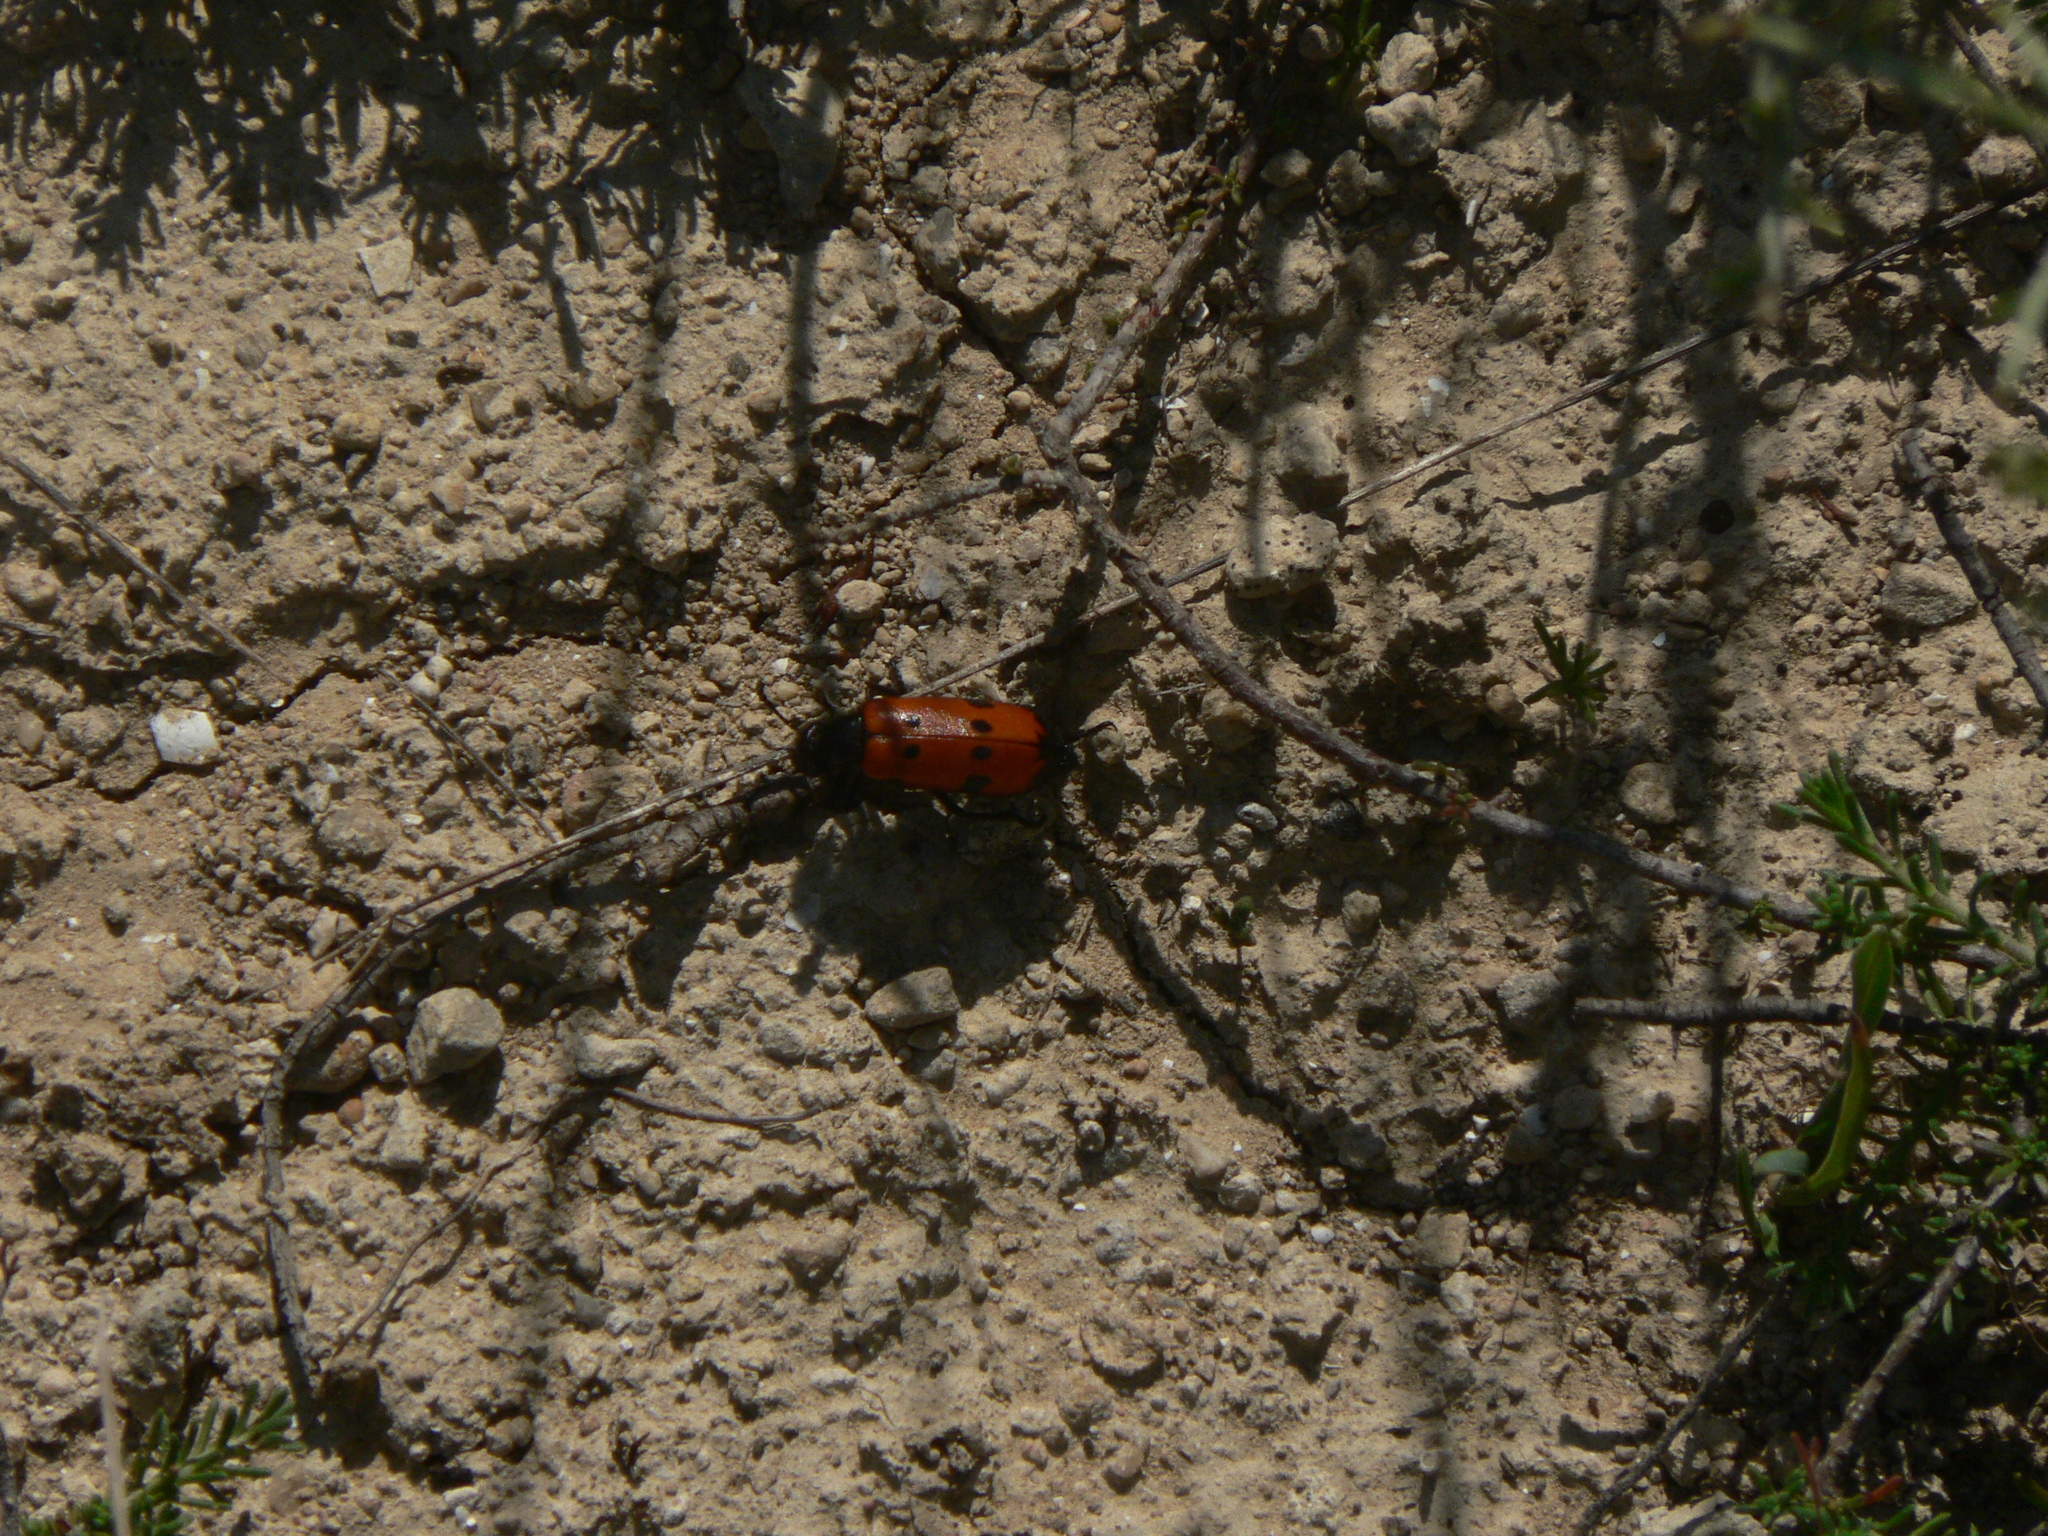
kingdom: Animalia
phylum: Arthropoda
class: Insecta
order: Coleoptera
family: Meloidae
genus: Mylabris
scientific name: Mylabris quadripunctata
